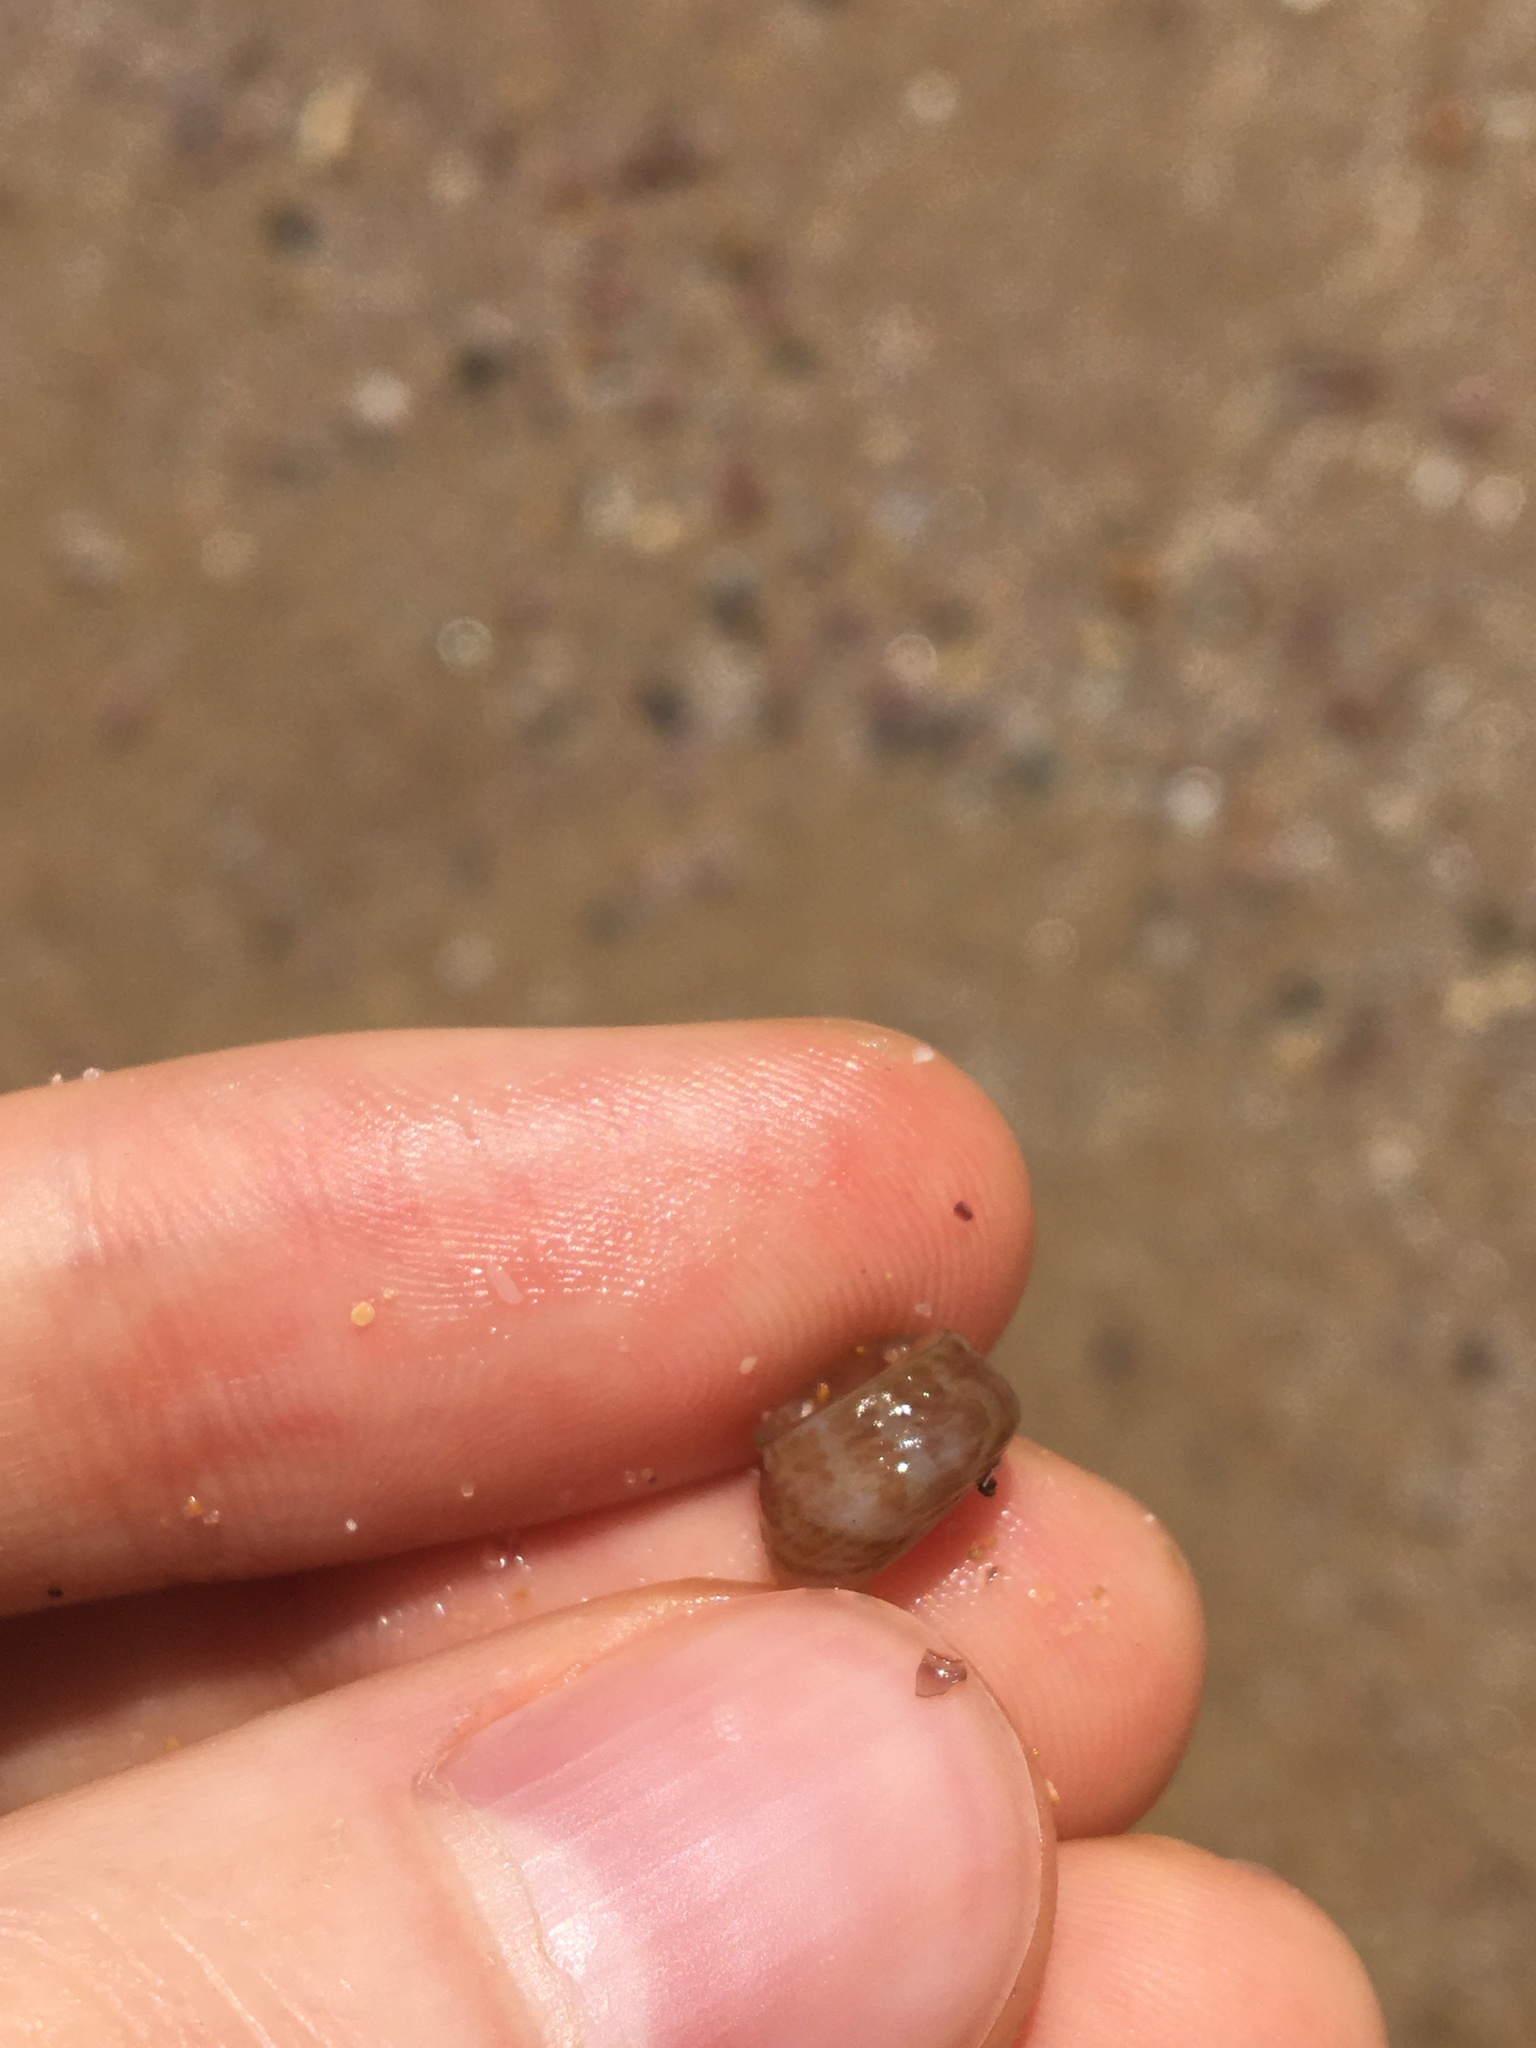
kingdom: Animalia
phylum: Mollusca
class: Gastropoda
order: Trochida
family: Trochidae
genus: Calthalotia
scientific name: Calthalotia fragum
